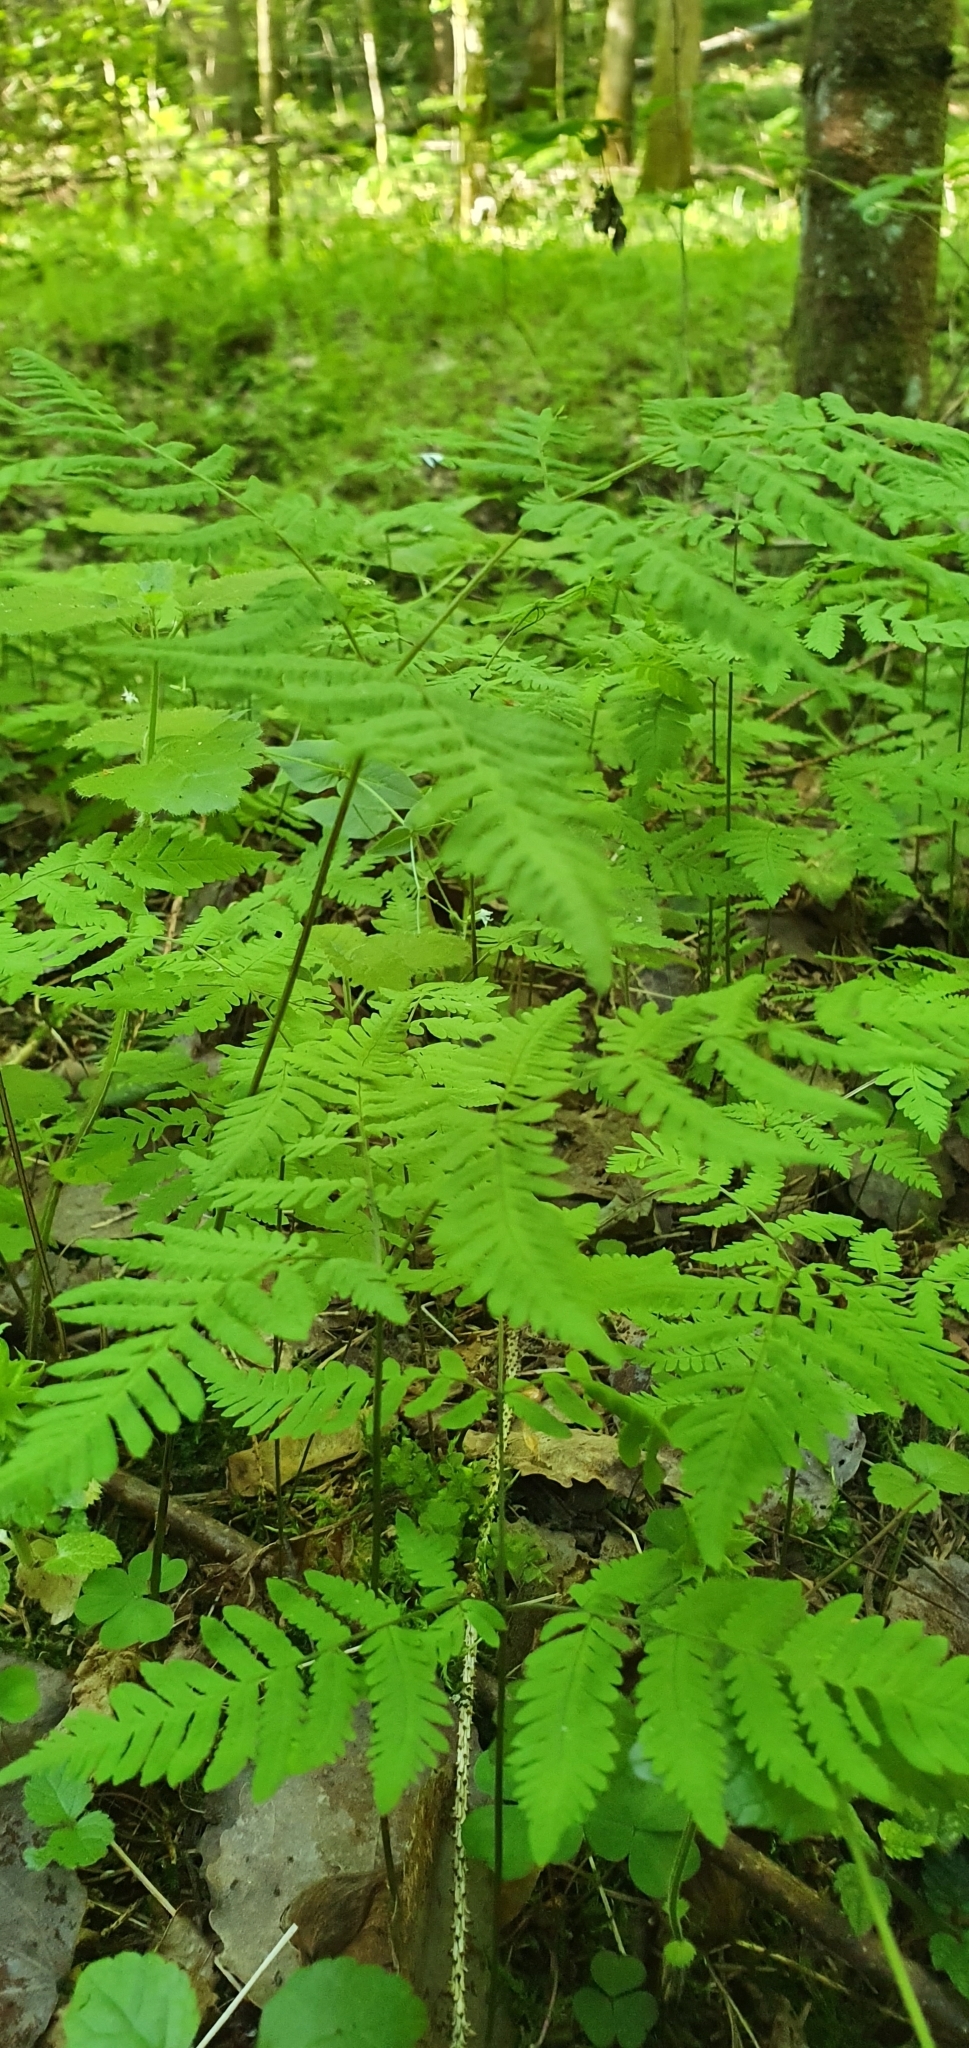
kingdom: Plantae
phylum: Tracheophyta
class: Polypodiopsida
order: Polypodiales
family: Cystopteridaceae
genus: Gymnocarpium
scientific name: Gymnocarpium dryopteris
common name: Oak fern
